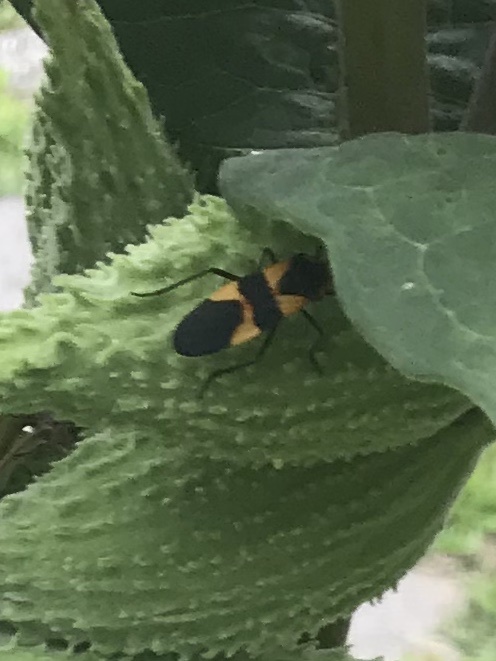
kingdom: Animalia
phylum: Arthropoda
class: Insecta
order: Hemiptera
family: Lygaeidae
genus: Oncopeltus
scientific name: Oncopeltus fasciatus
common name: Large milkweed bug
